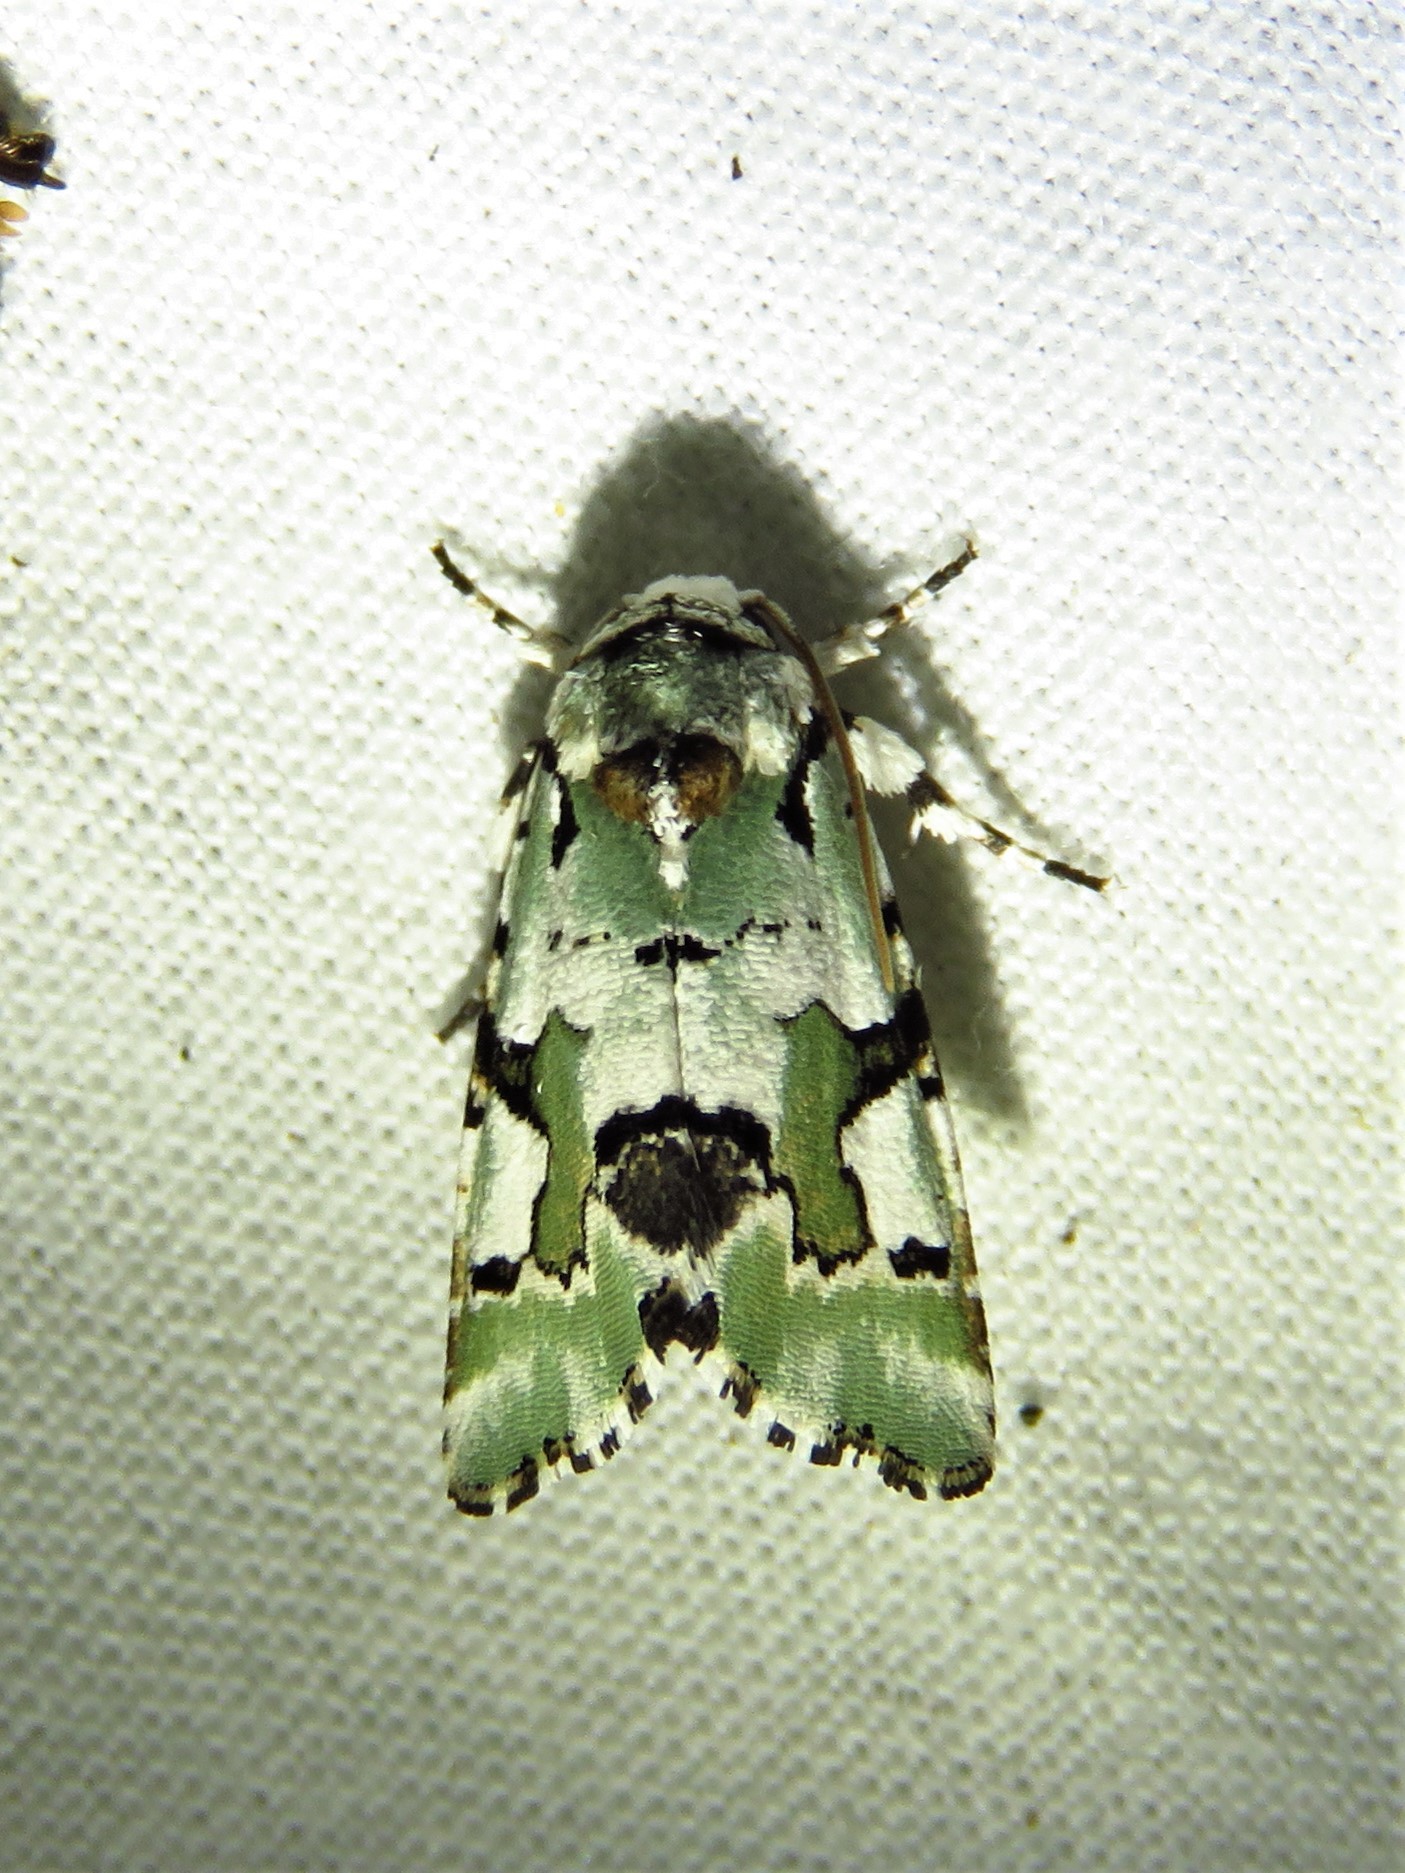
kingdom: Animalia
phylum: Arthropoda
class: Insecta
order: Lepidoptera
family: Noctuidae
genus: Emarginea
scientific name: Emarginea percara
